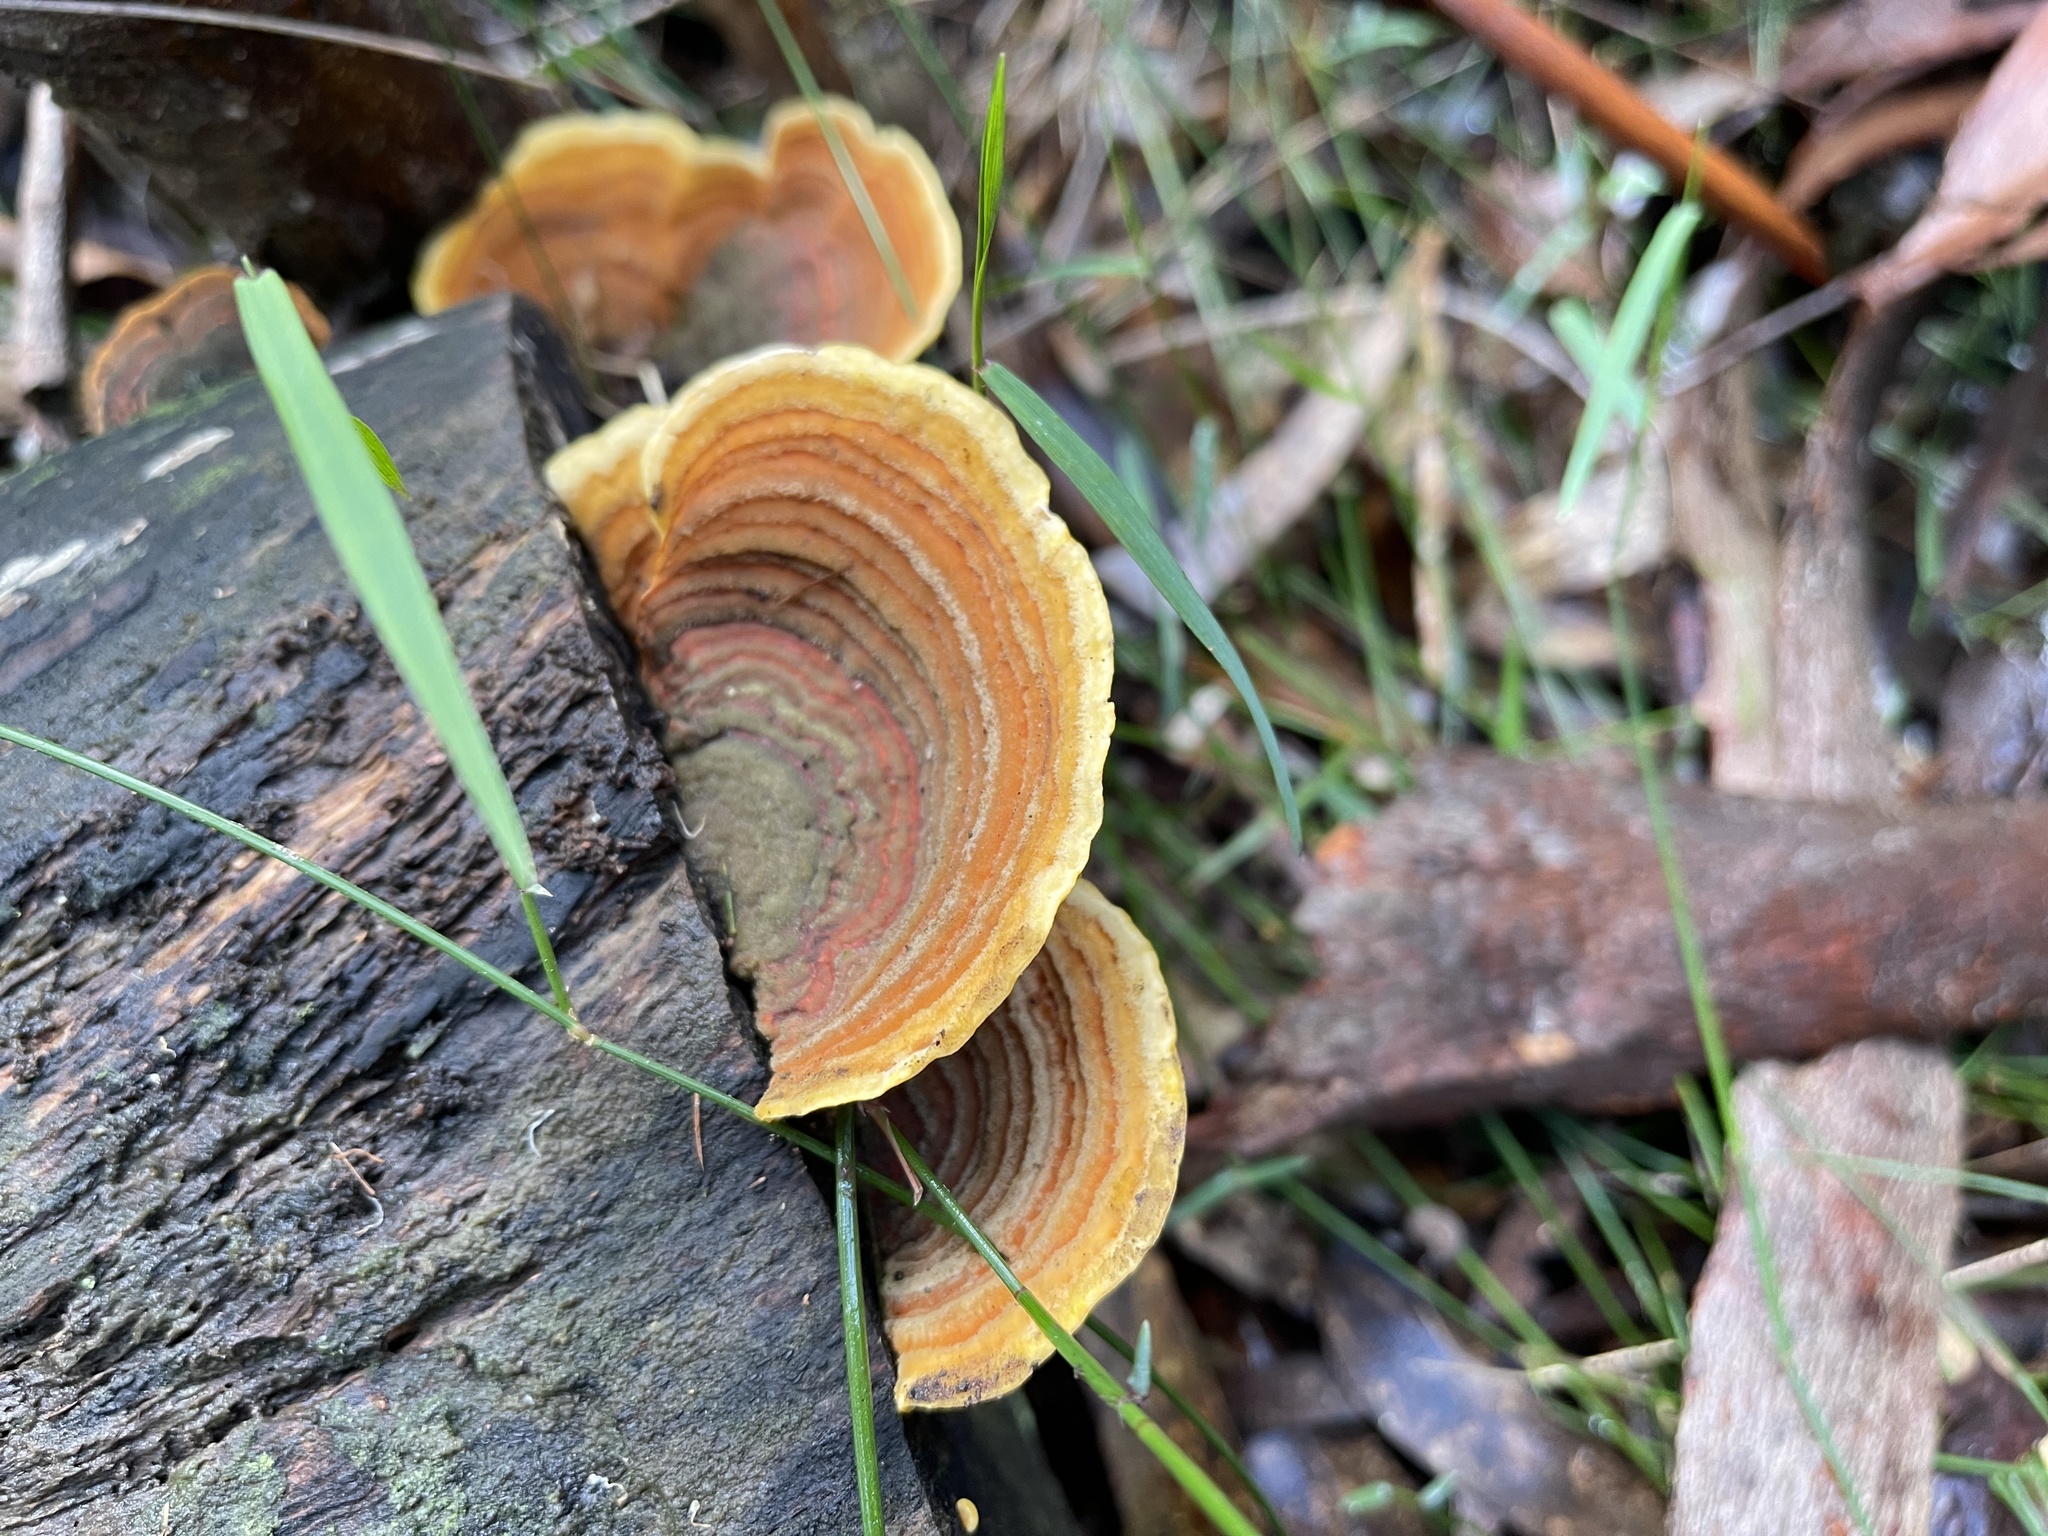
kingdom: Fungi
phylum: Basidiomycota
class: Agaricomycetes
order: Russulales
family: Stereaceae
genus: Stereum
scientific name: Stereum versicolor
